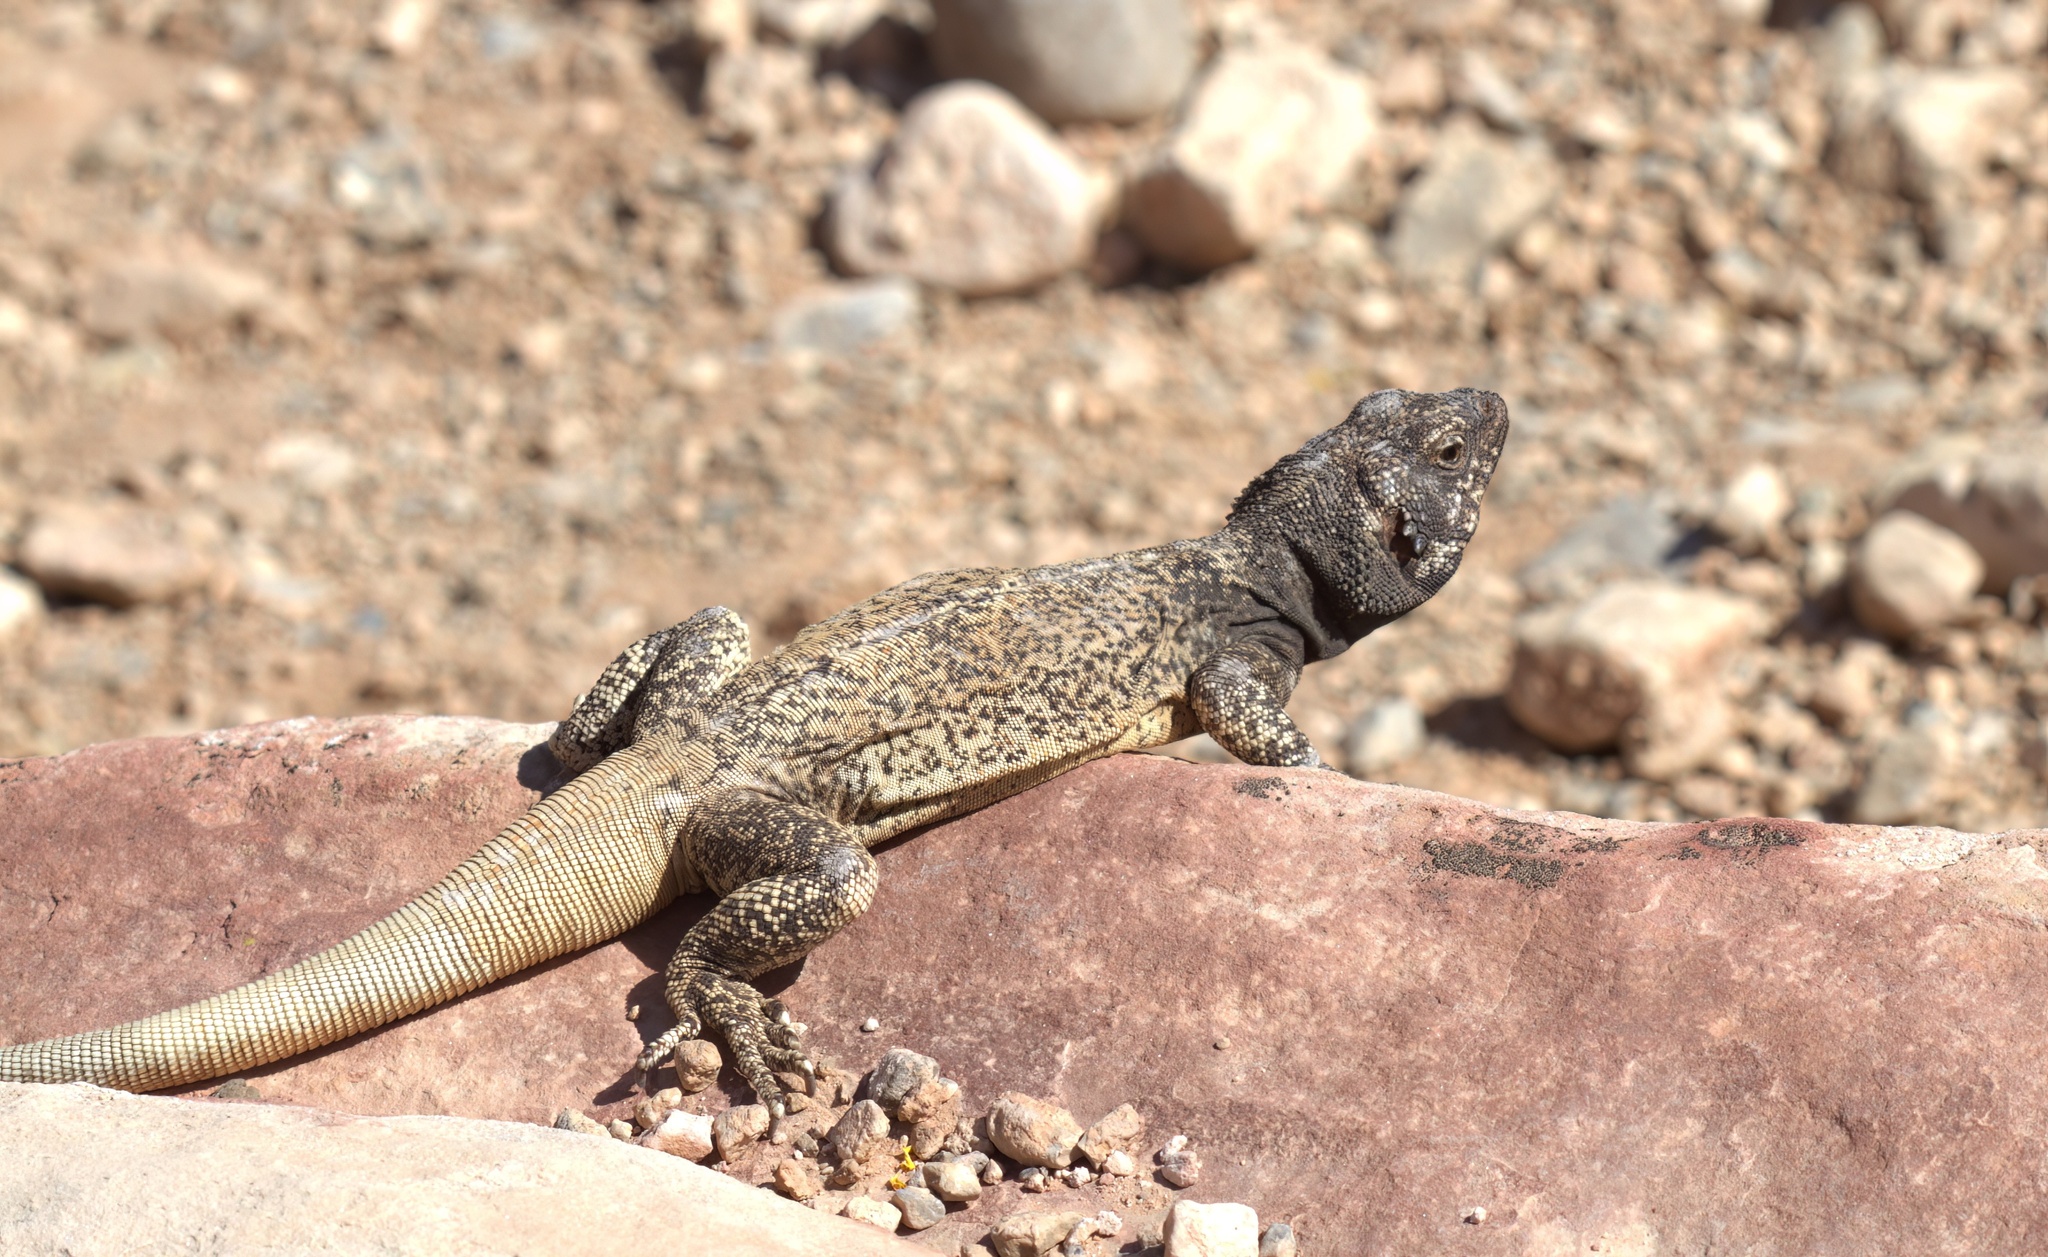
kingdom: Animalia
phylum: Chordata
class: Squamata
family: Iguanidae
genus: Sauromalus
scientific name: Sauromalus ater
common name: Northern chuckwalla
